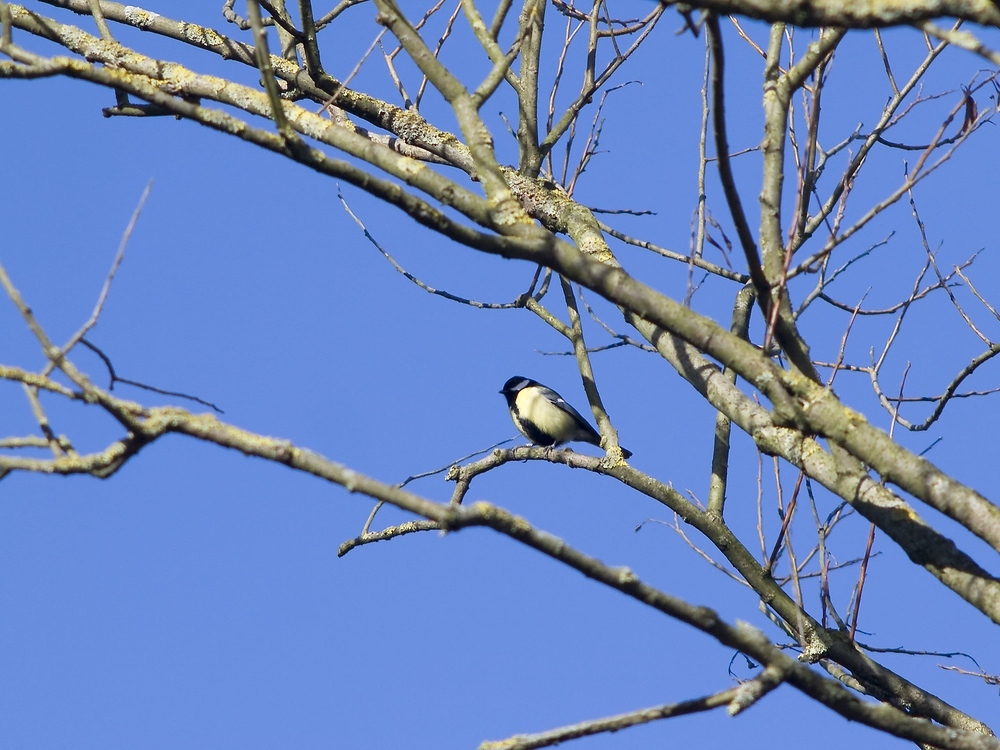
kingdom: Animalia
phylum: Chordata
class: Aves
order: Passeriformes
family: Paridae
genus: Parus
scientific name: Parus major
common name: Great tit
